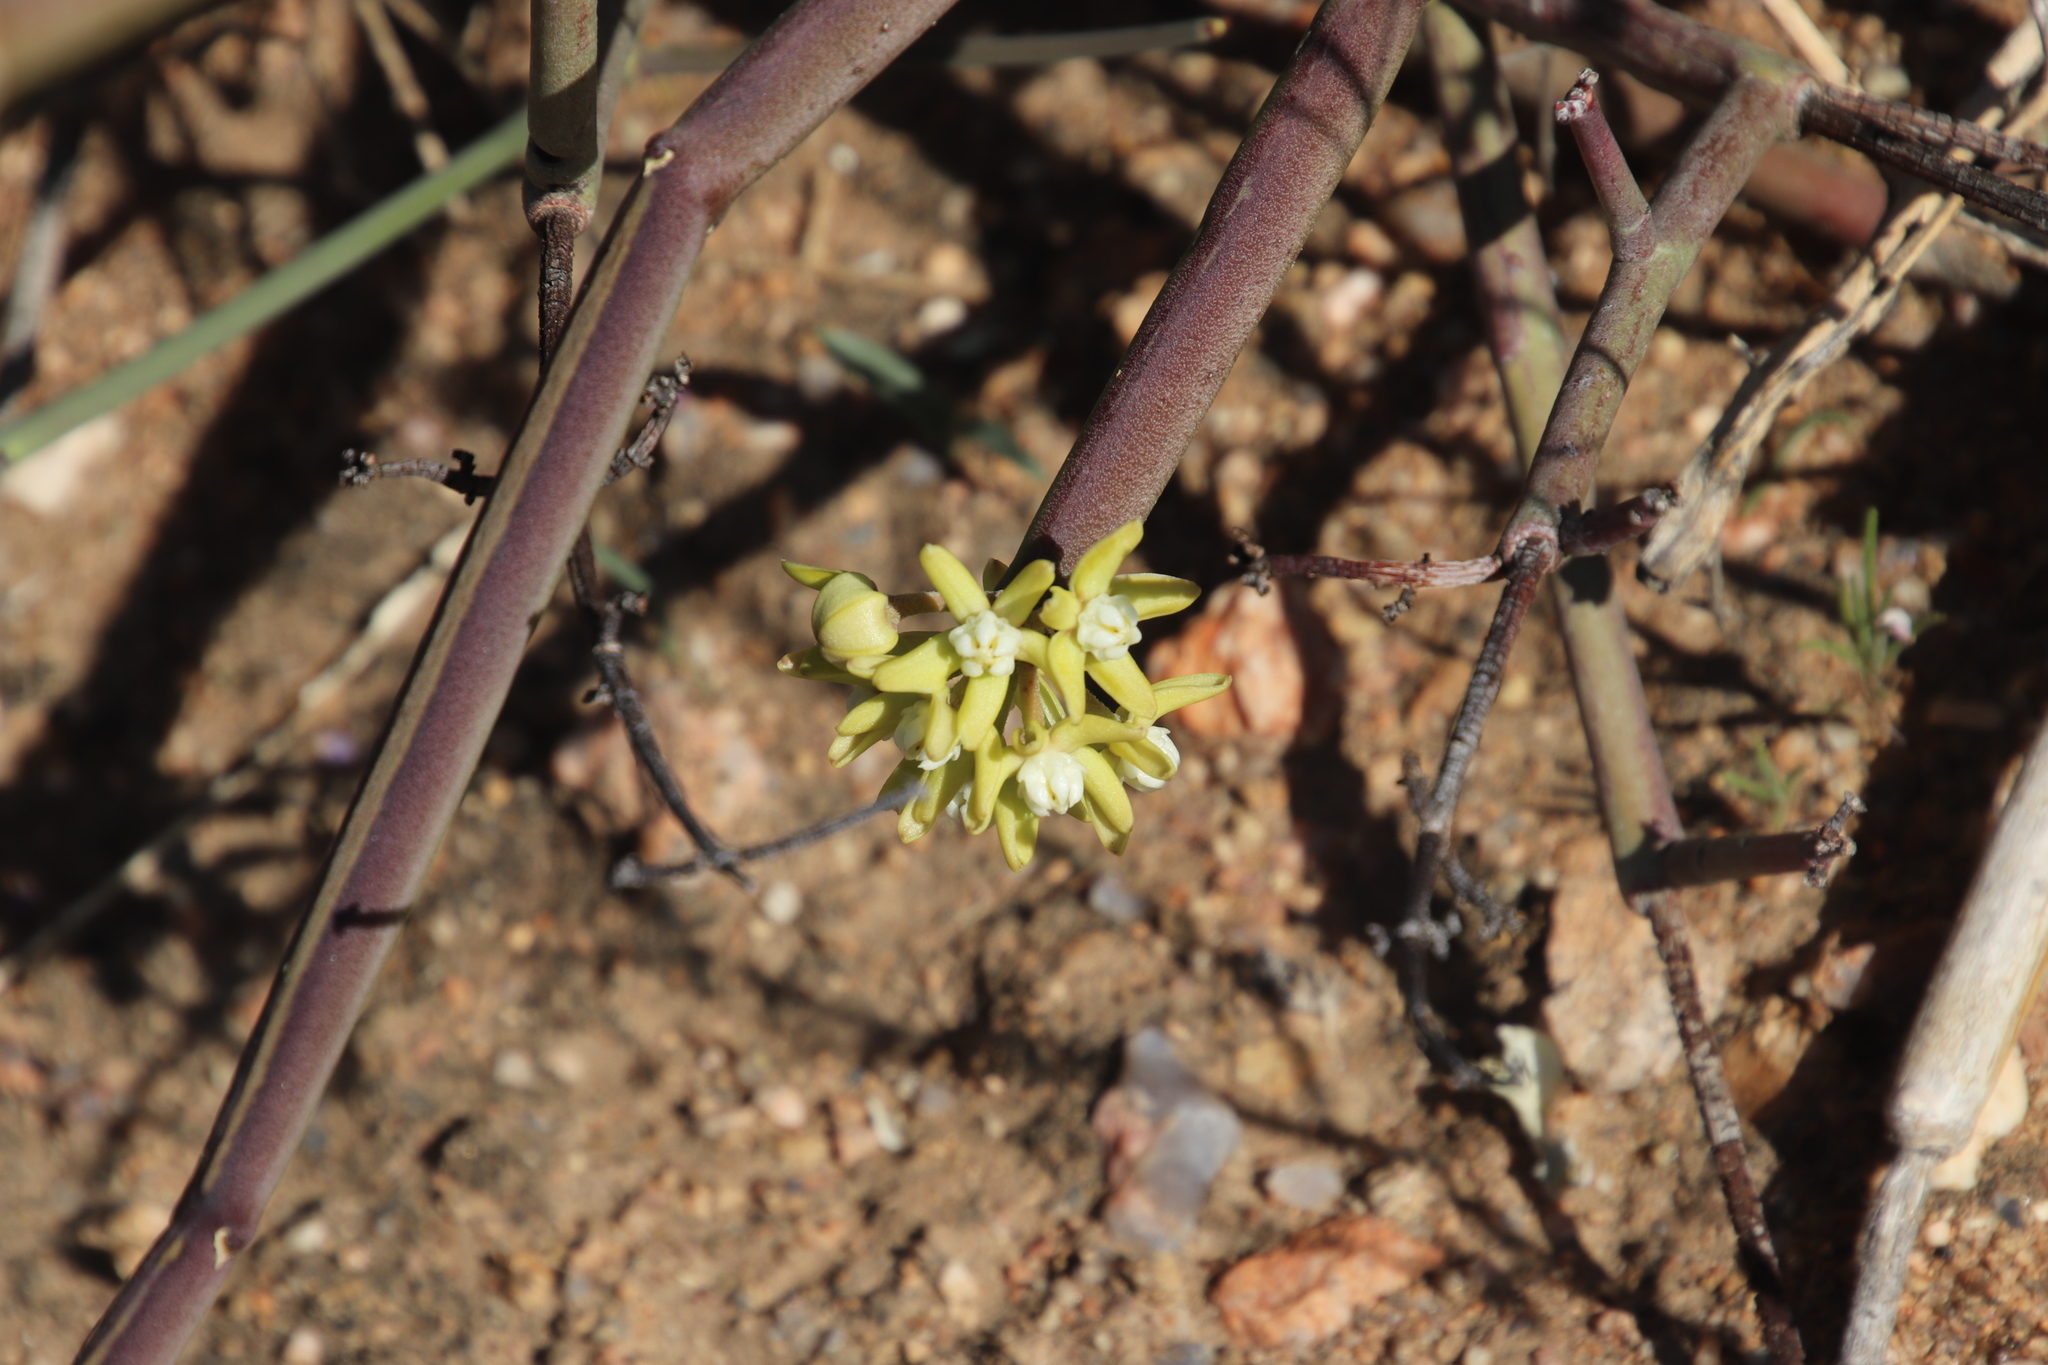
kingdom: Plantae
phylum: Tracheophyta
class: Magnoliopsida
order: Gentianales
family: Apocynaceae
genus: Cynanchum
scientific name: Cynanchum viminale
